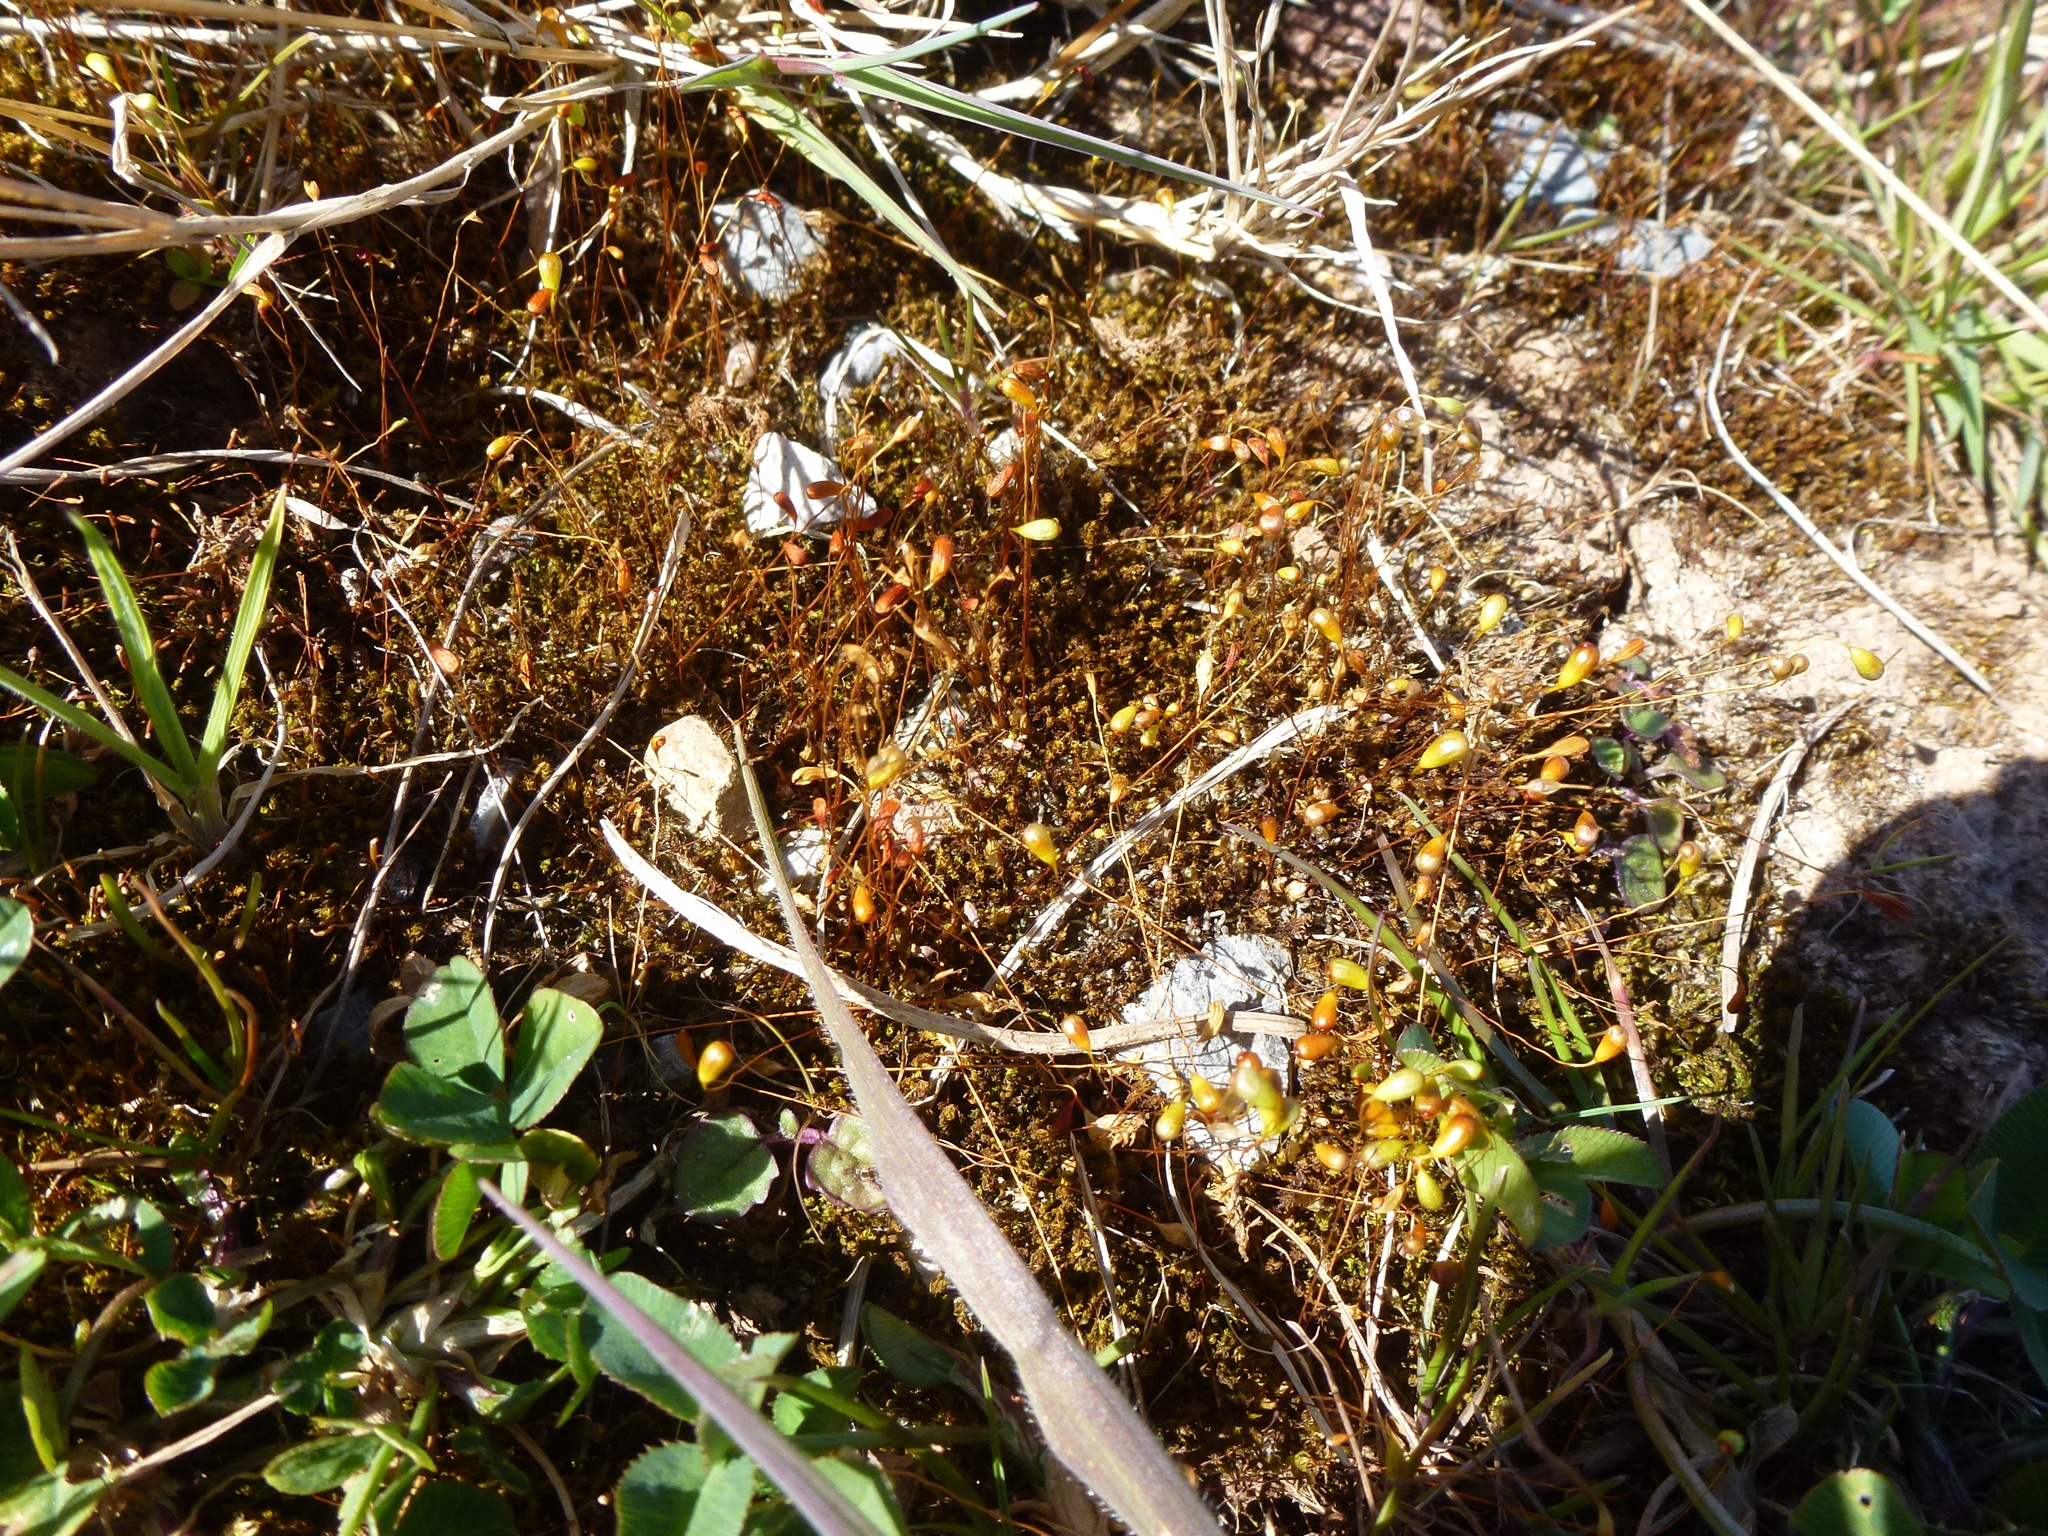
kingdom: Plantae
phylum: Bryophyta
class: Bryopsida
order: Funariales
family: Funariaceae
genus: Funaria
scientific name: Funaria hygrometrica
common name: Common cord moss
